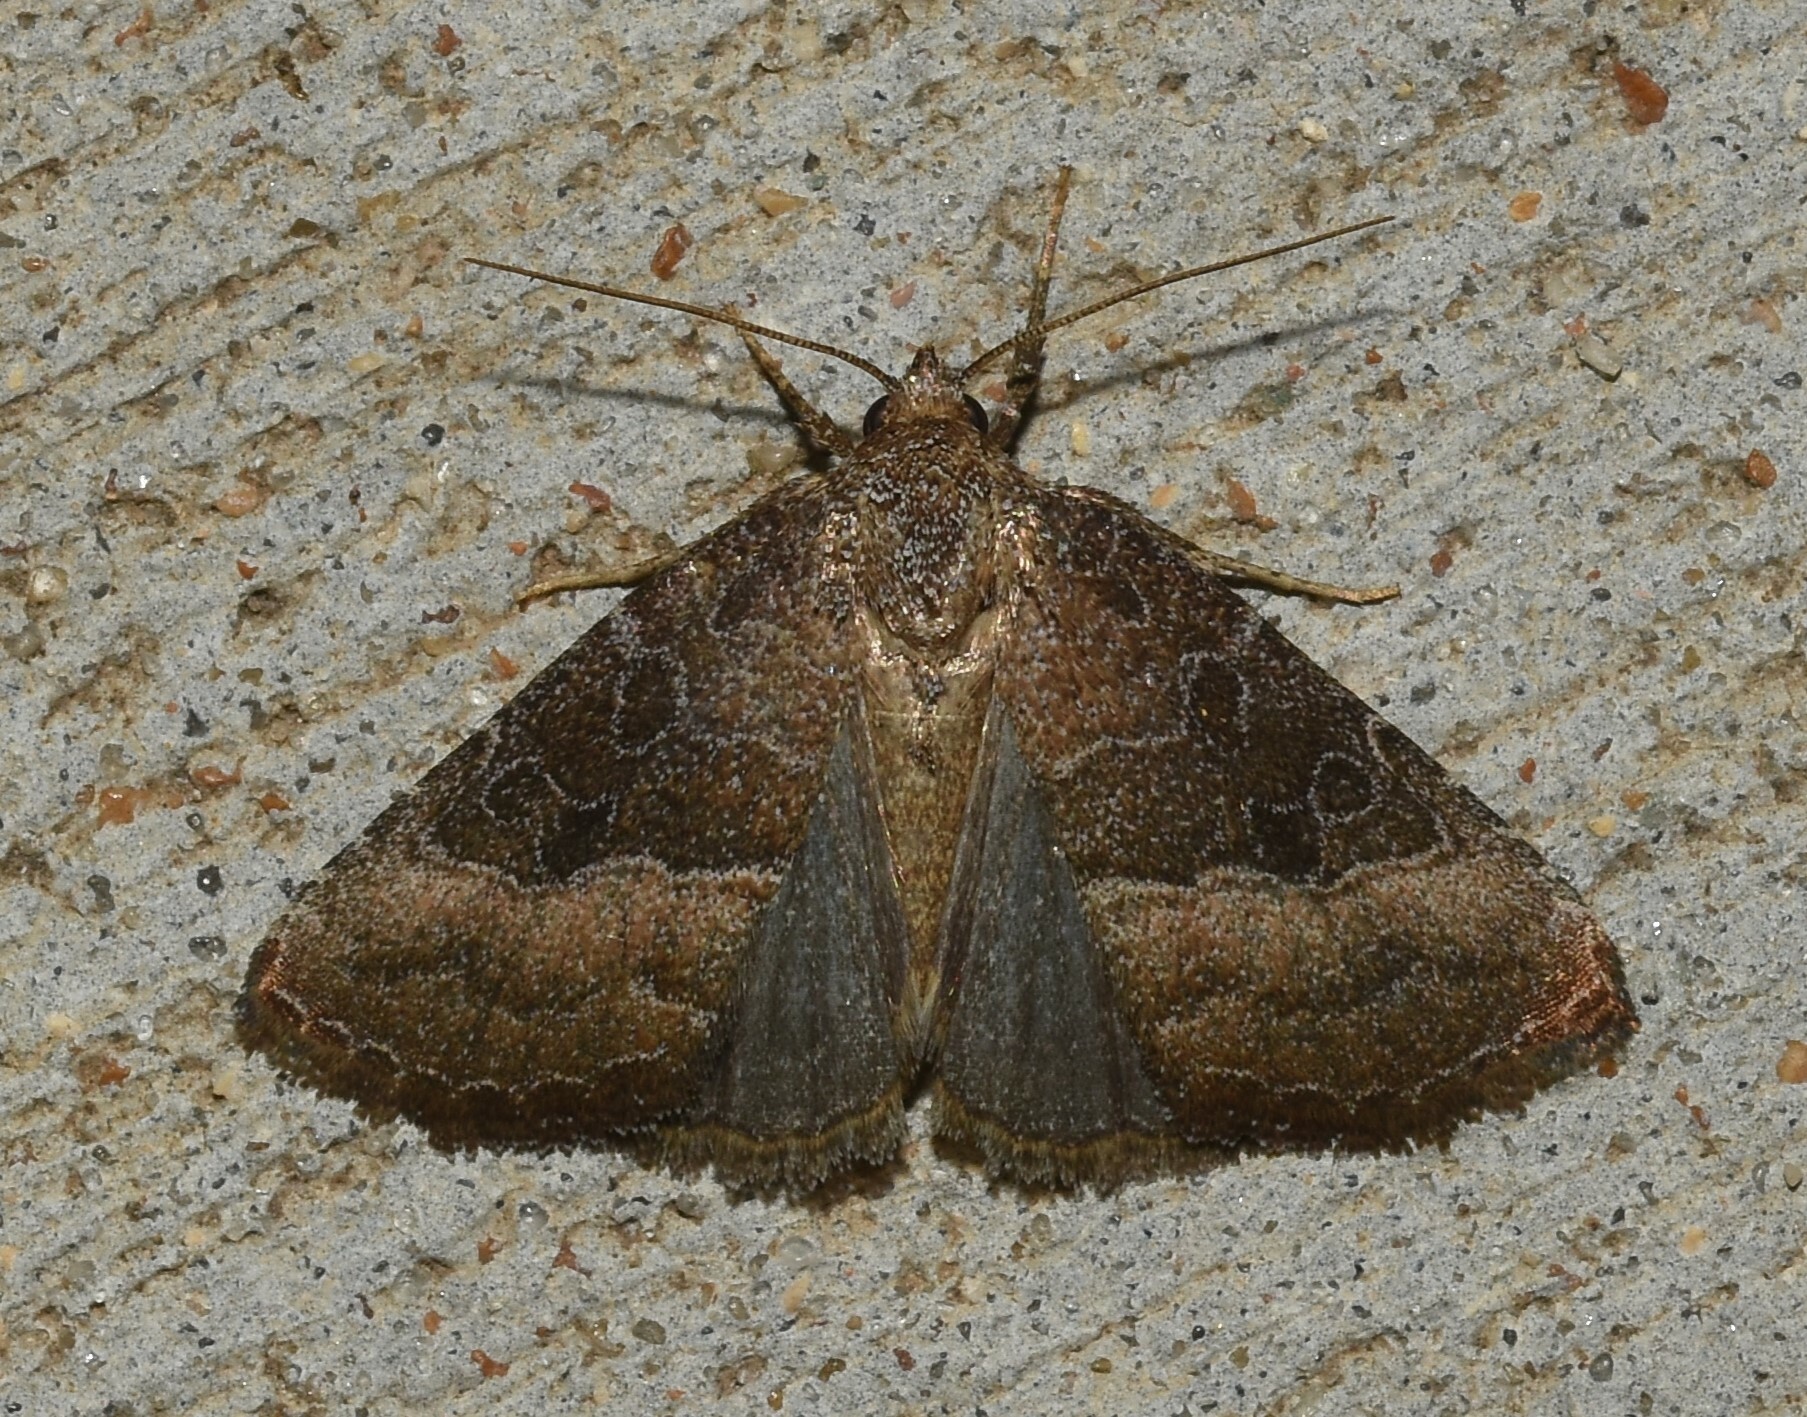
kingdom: Animalia
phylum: Arthropoda
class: Insecta
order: Lepidoptera
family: Noctuidae
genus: Ogdoconta
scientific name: Ogdoconta cinereola
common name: Common pinkband
